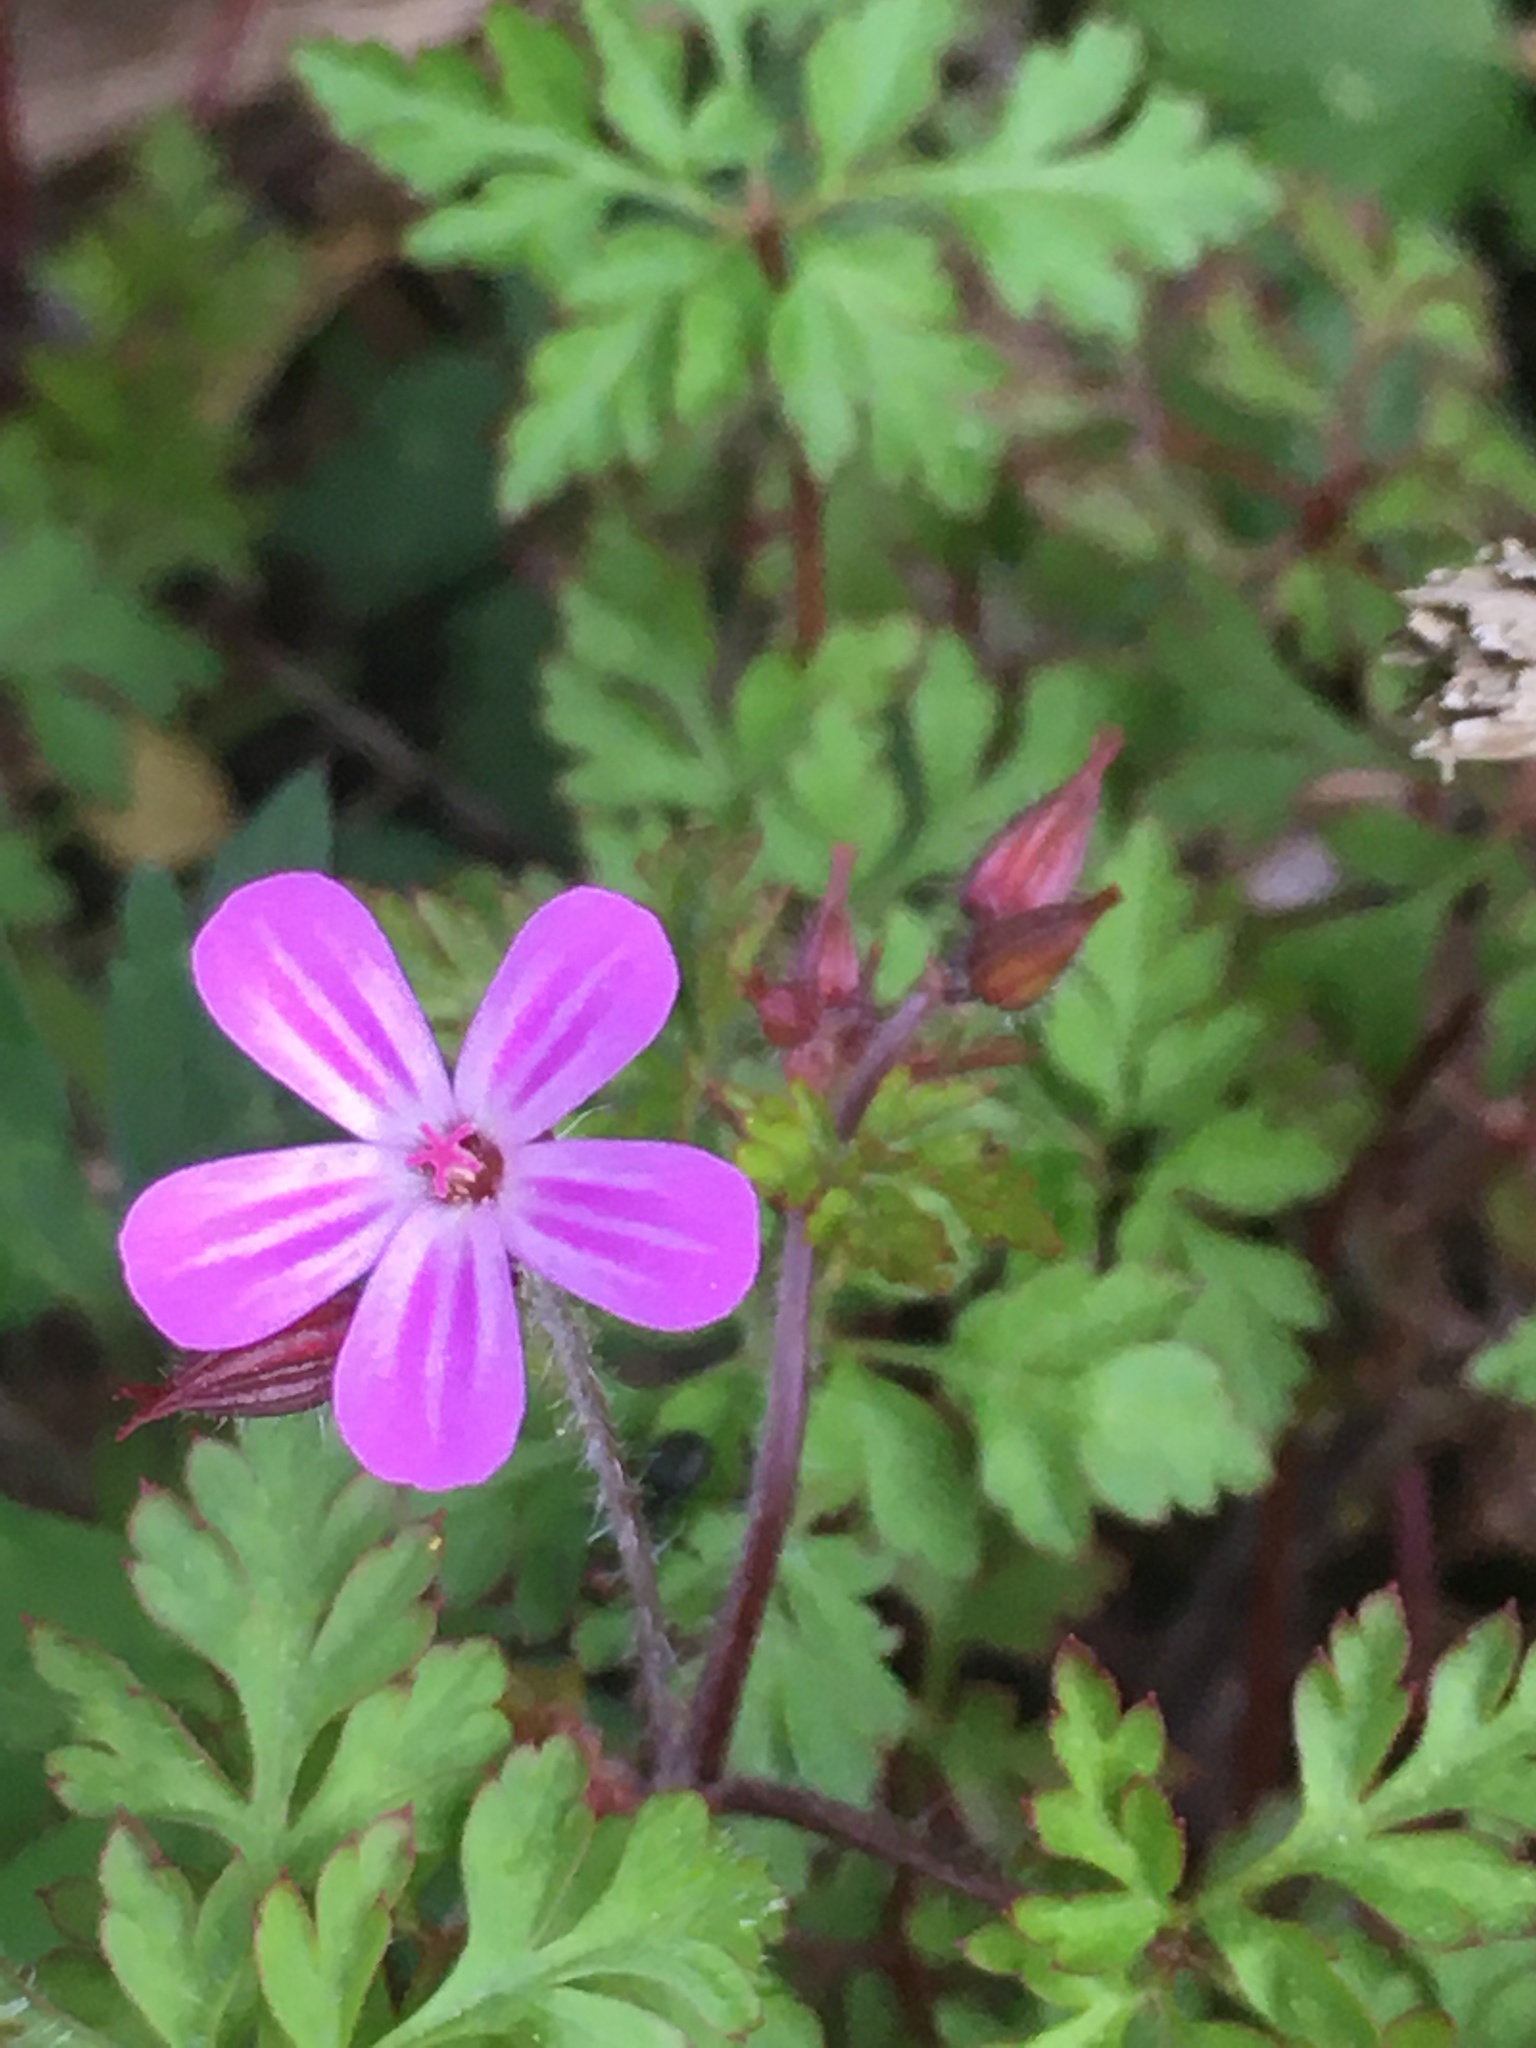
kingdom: Plantae
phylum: Tracheophyta
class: Magnoliopsida
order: Geraniales
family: Geraniaceae
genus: Geranium
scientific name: Geranium robertianum
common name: Herb-robert
